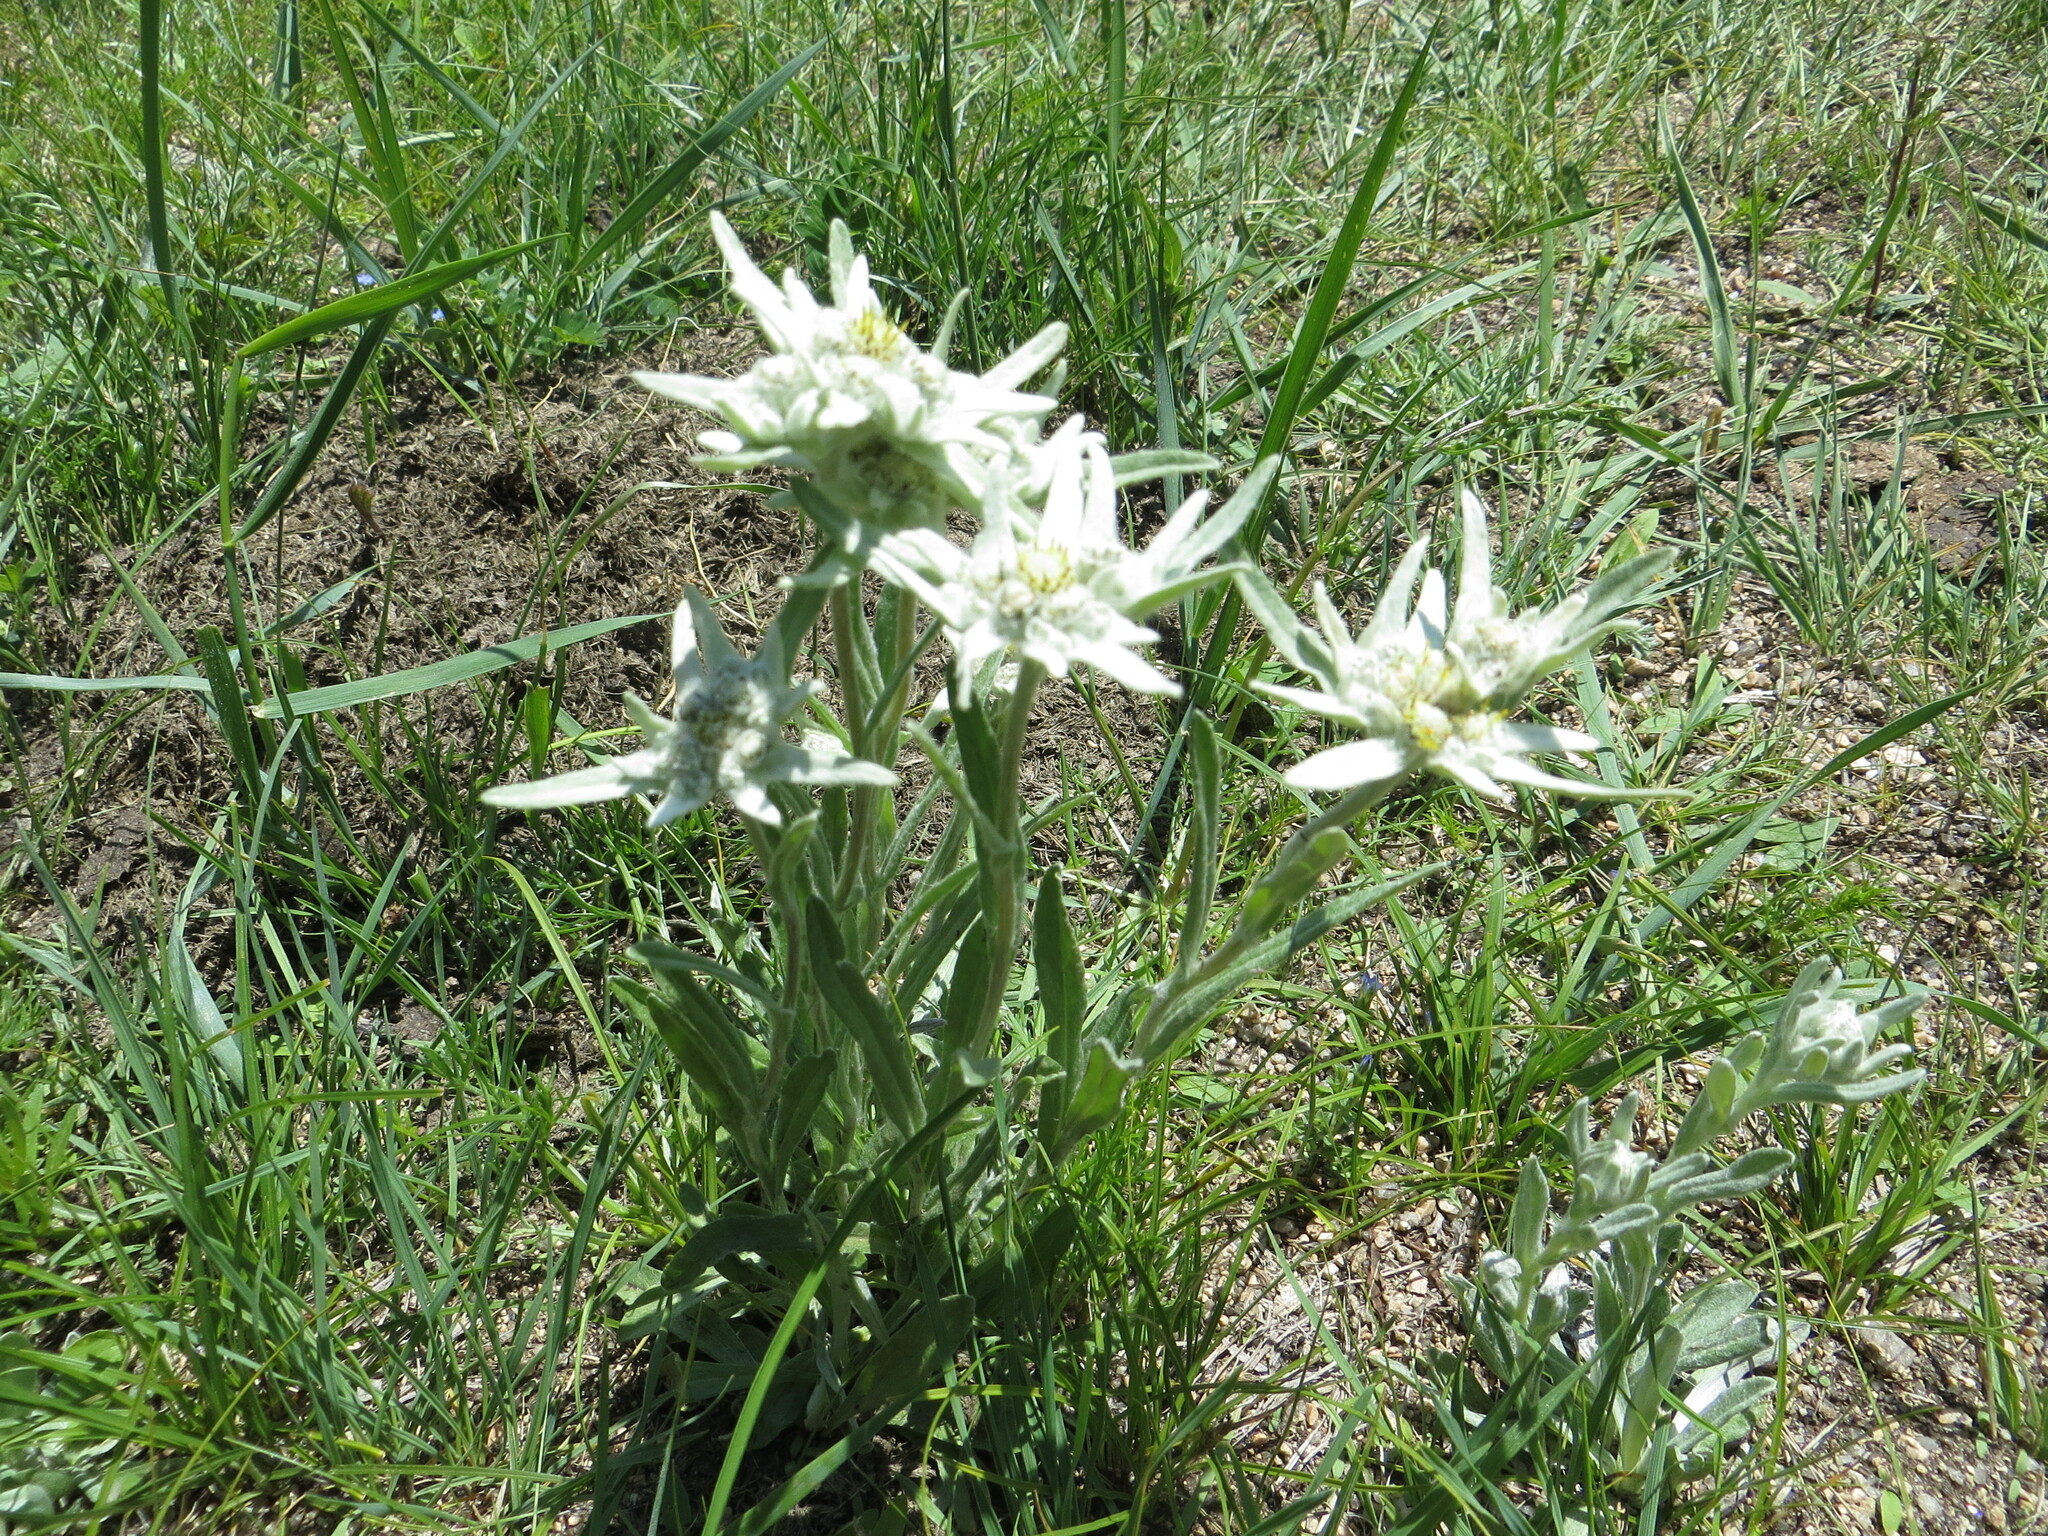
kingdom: Plantae
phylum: Tracheophyta
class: Magnoliopsida
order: Asterales
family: Asteraceae
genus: Leontopodium
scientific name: Leontopodium conglobatum
